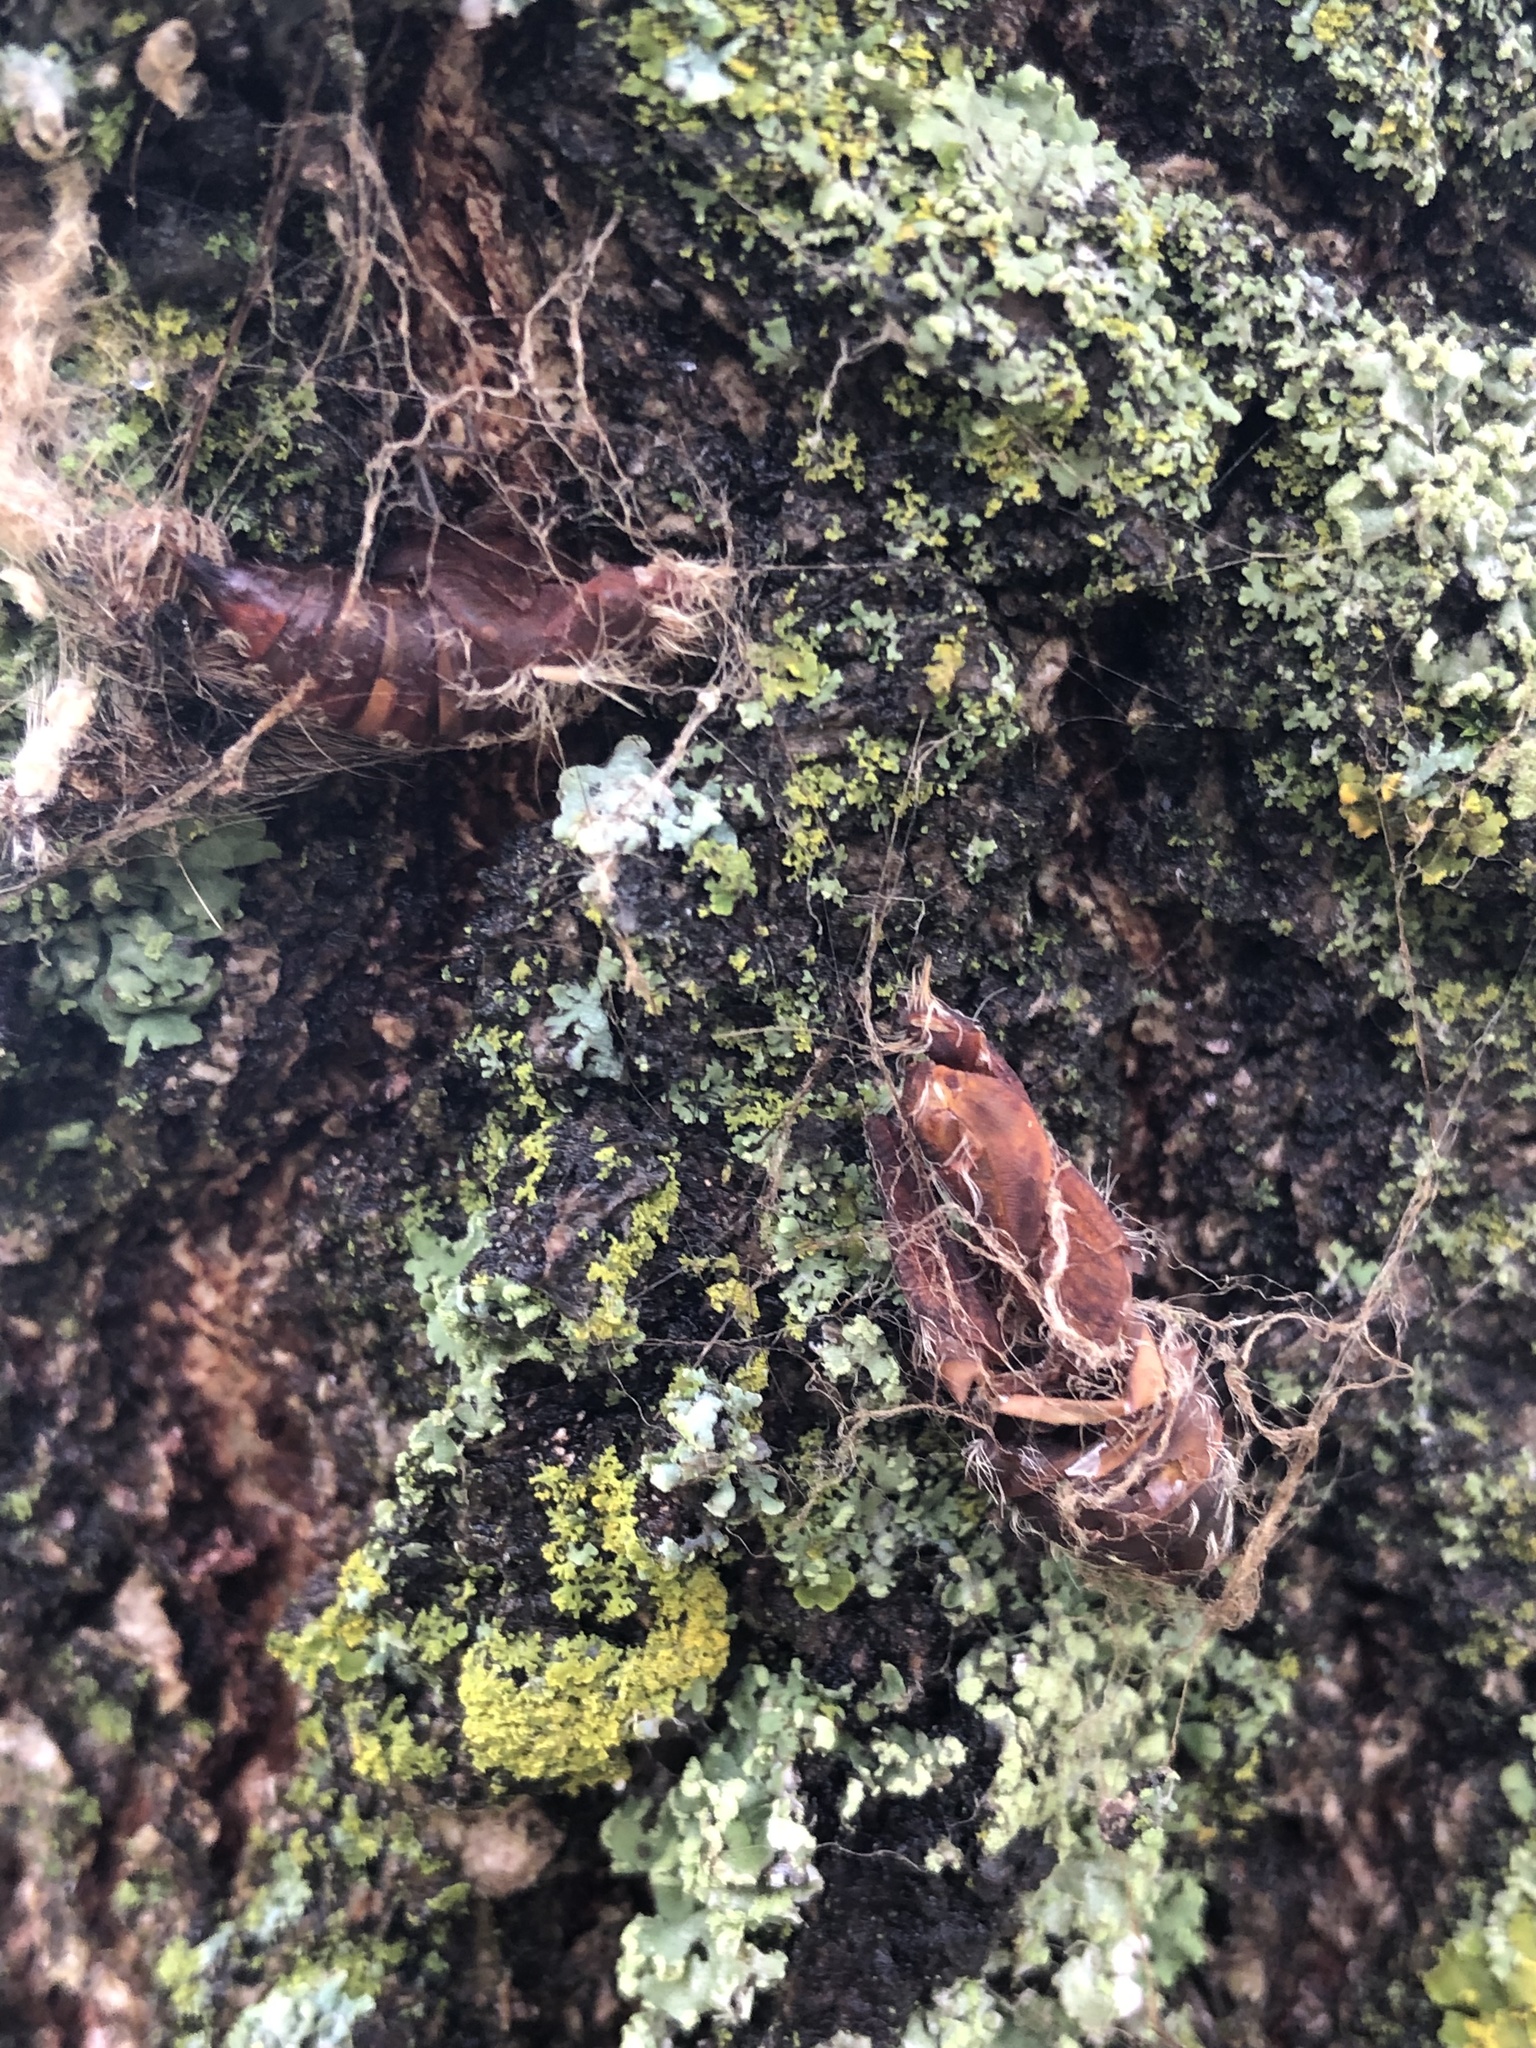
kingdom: Animalia
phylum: Arthropoda
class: Insecta
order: Lepidoptera
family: Erebidae
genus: Lymantria
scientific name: Lymantria dispar
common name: Gypsy moth
